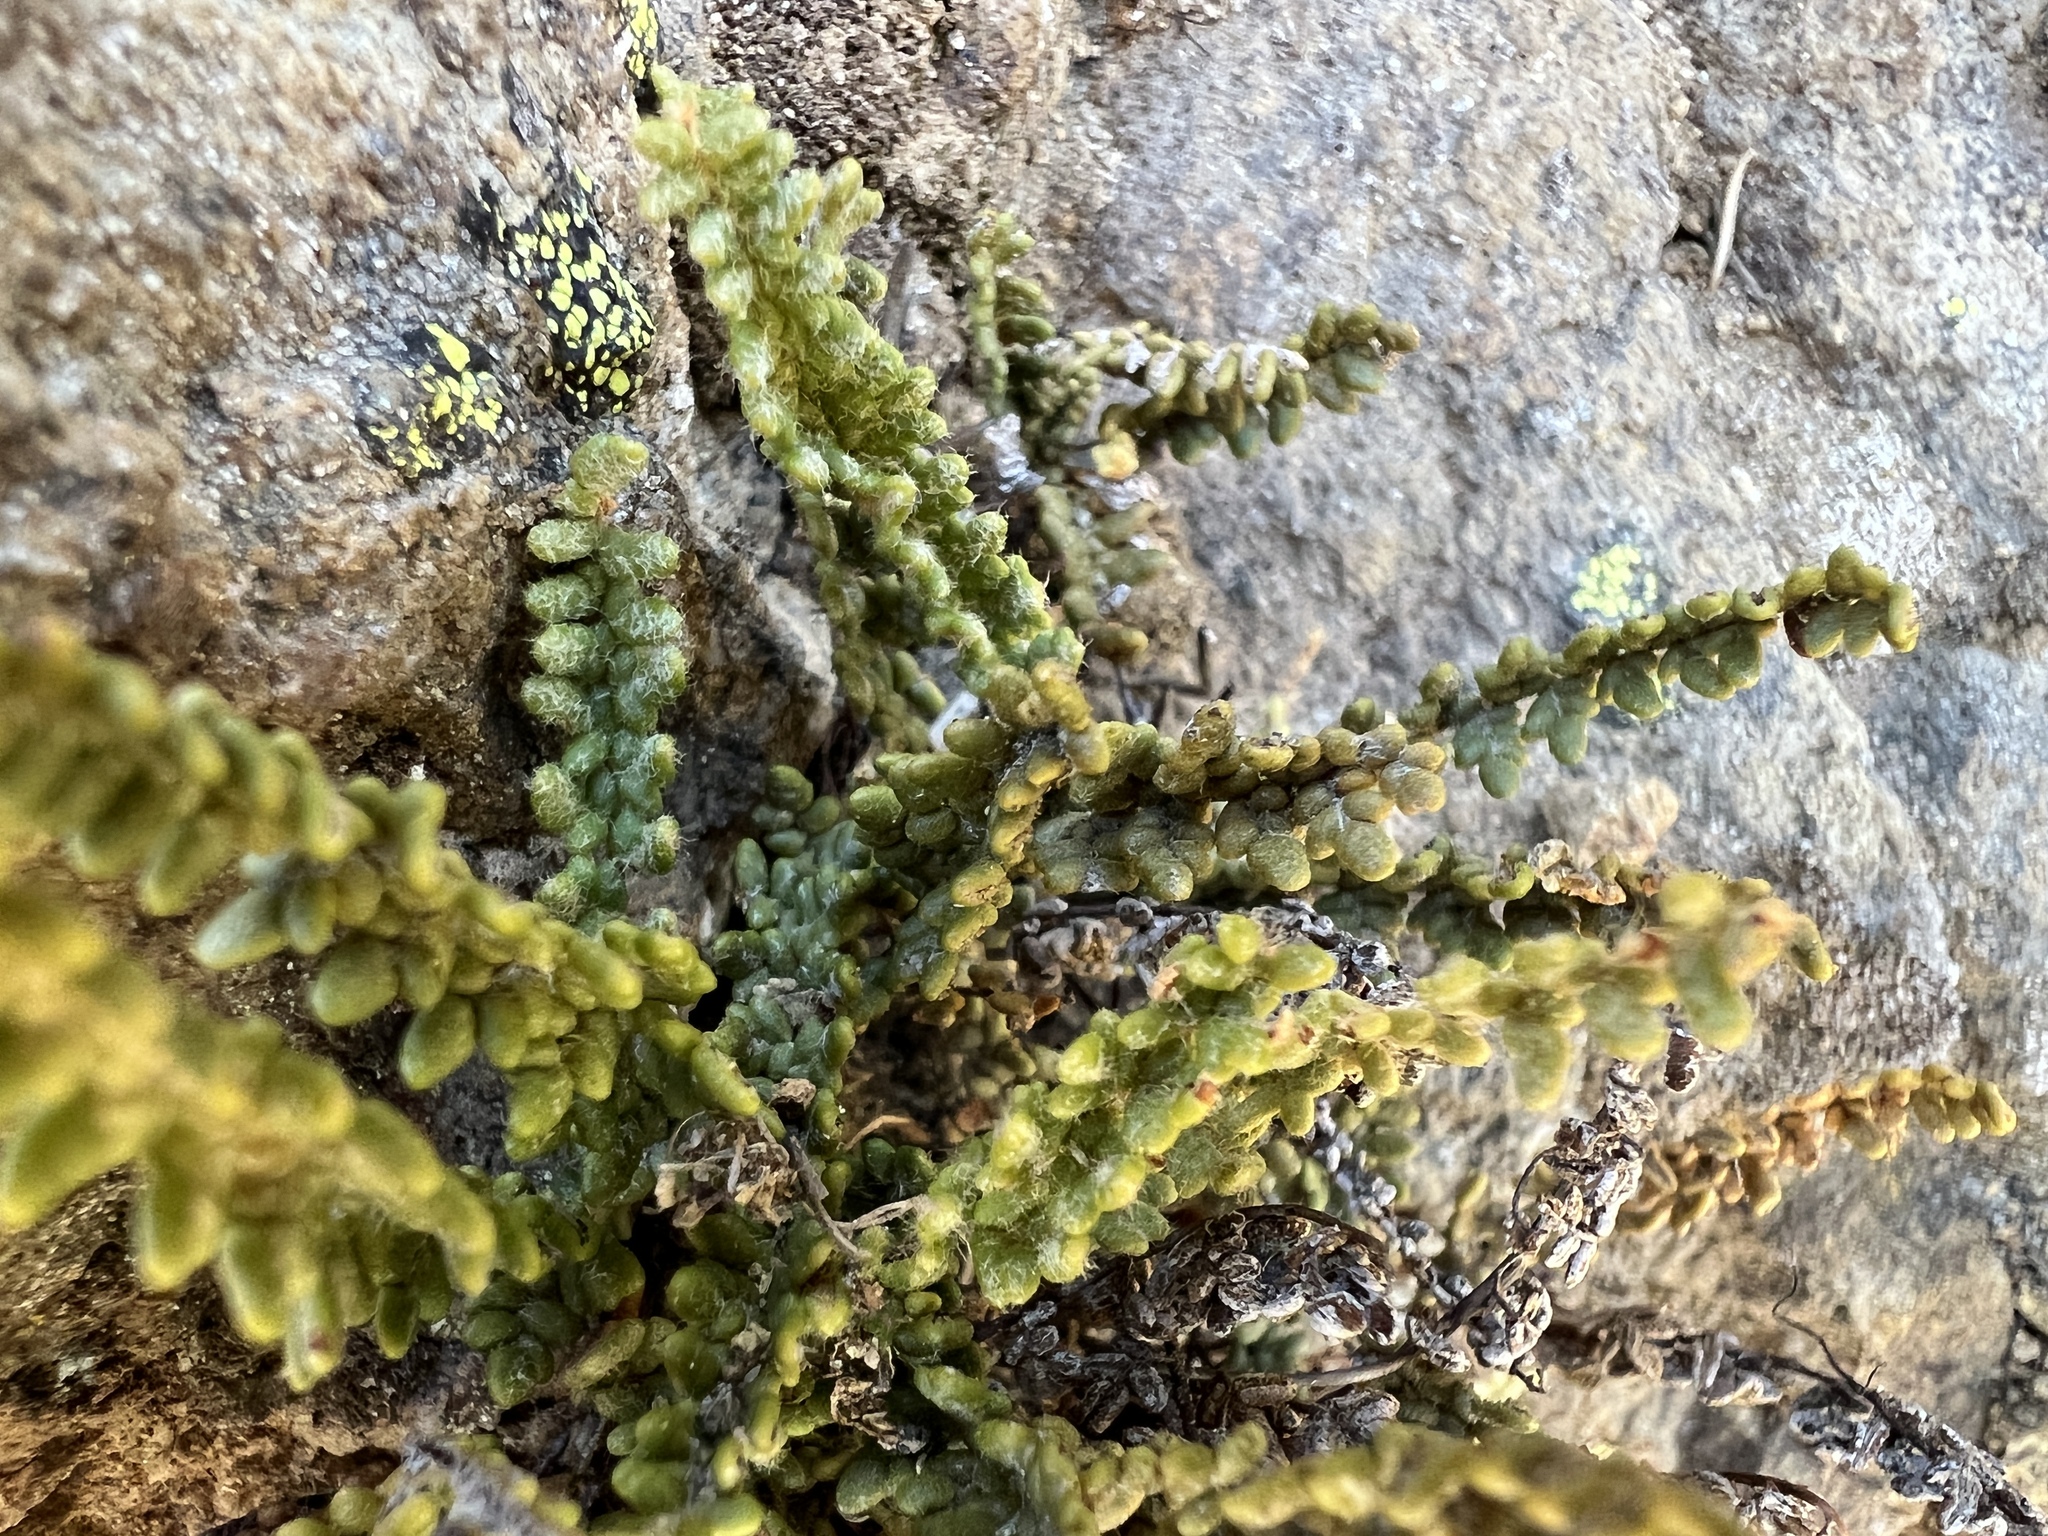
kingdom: Plantae
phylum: Tracheophyta
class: Polypodiopsida
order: Polypodiales
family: Pteridaceae
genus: Myriopteris
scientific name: Myriopteris gracillima
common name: Lace fern
